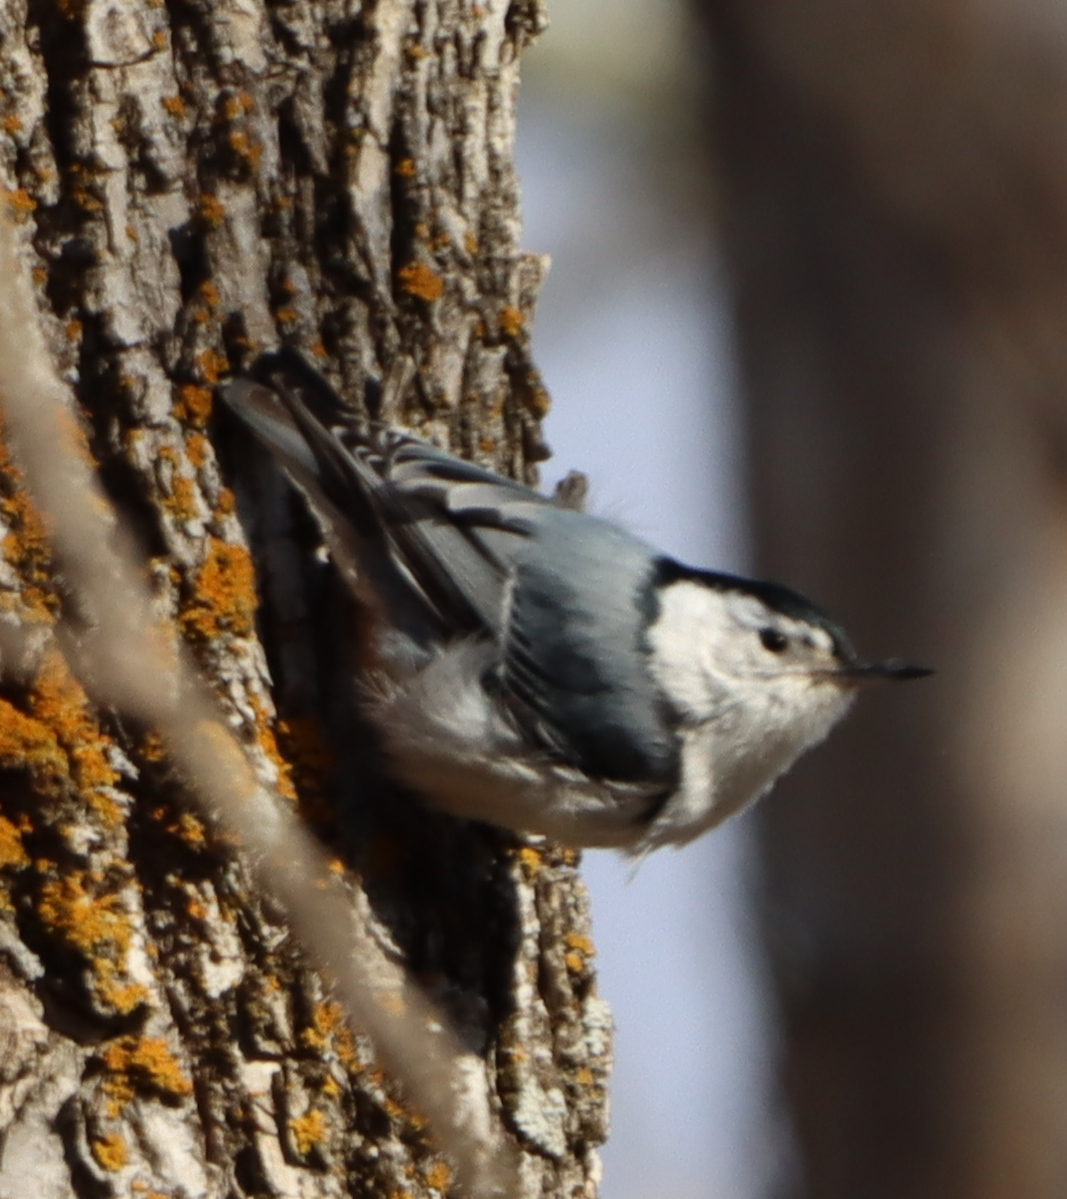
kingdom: Animalia
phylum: Chordata
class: Aves
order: Passeriformes
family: Sittidae
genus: Sitta
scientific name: Sitta carolinensis
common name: White-breasted nuthatch
